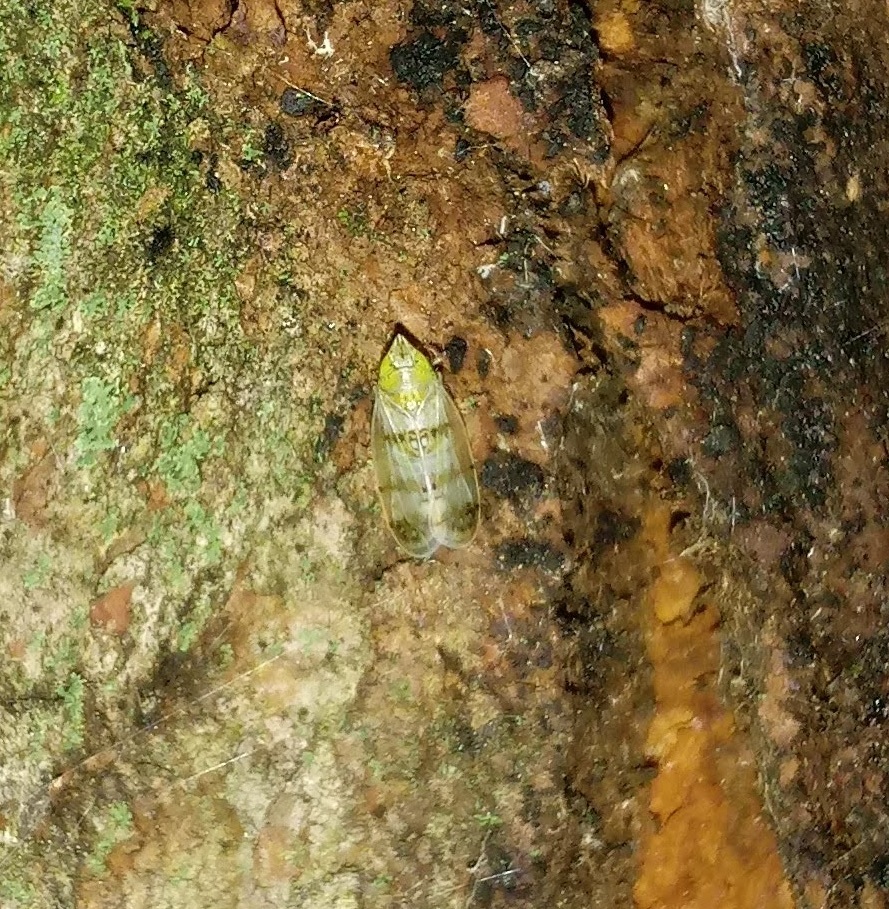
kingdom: Animalia
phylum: Arthropoda
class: Insecta
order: Hemiptera
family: Cicadellidae
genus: Japananus
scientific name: Japananus hyalinus
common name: The japanese maple leafhopper
